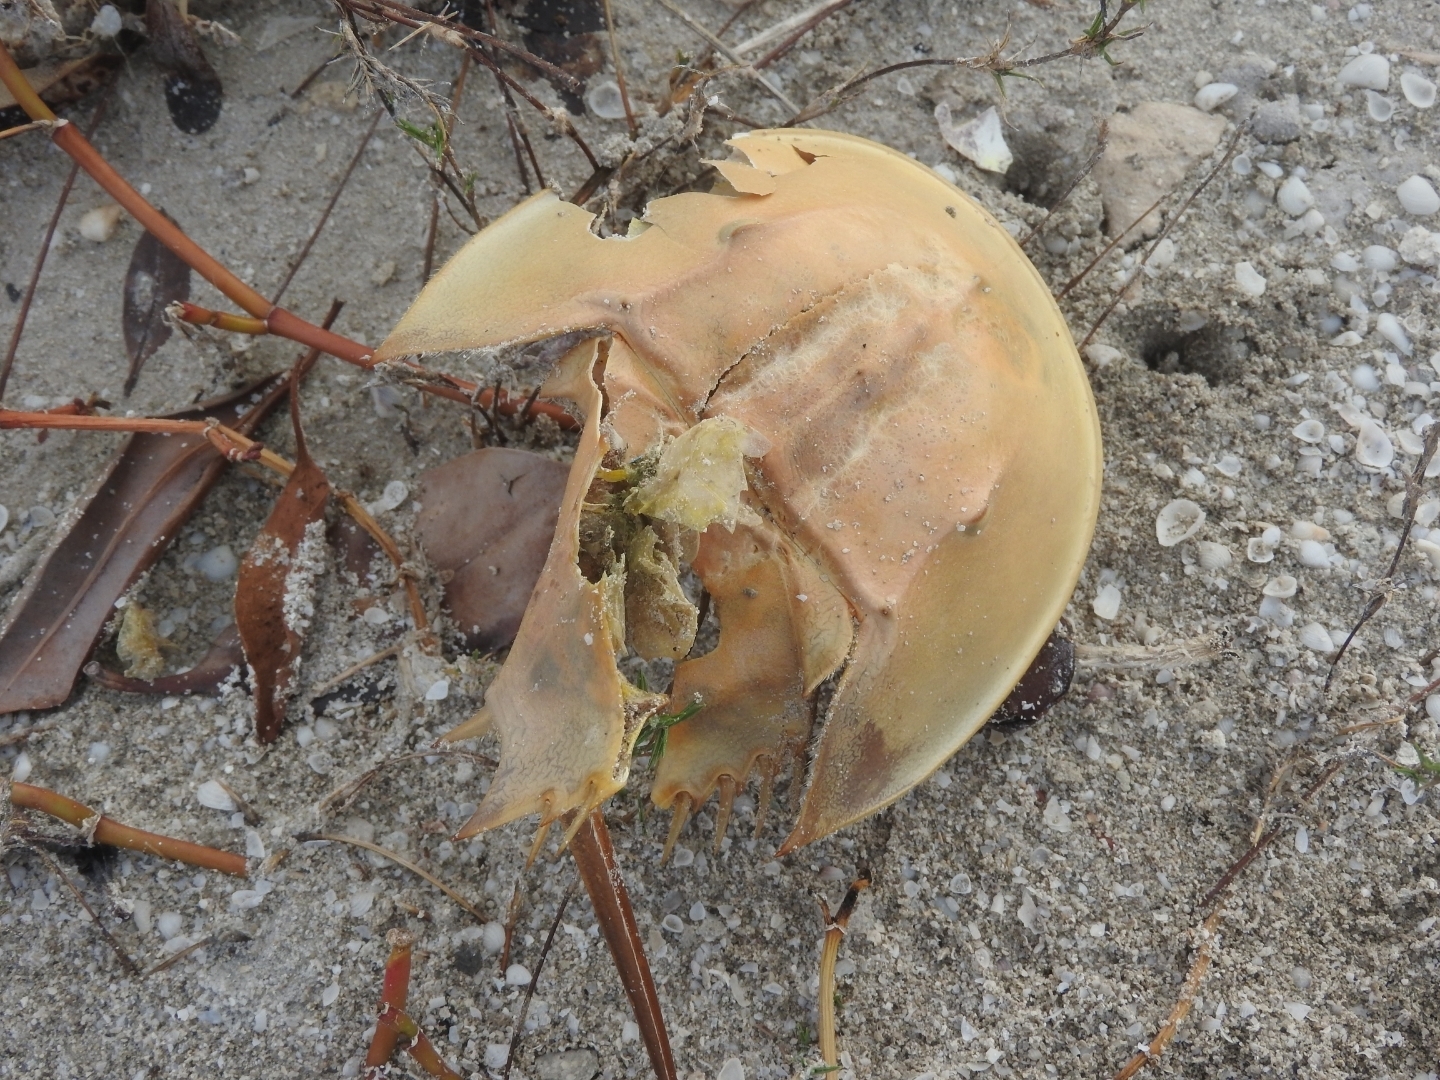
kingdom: Animalia
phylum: Arthropoda
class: Merostomata
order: Xiphosurida
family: Limulidae
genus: Limulus
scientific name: Limulus polyphemus
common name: Horseshoe crab
